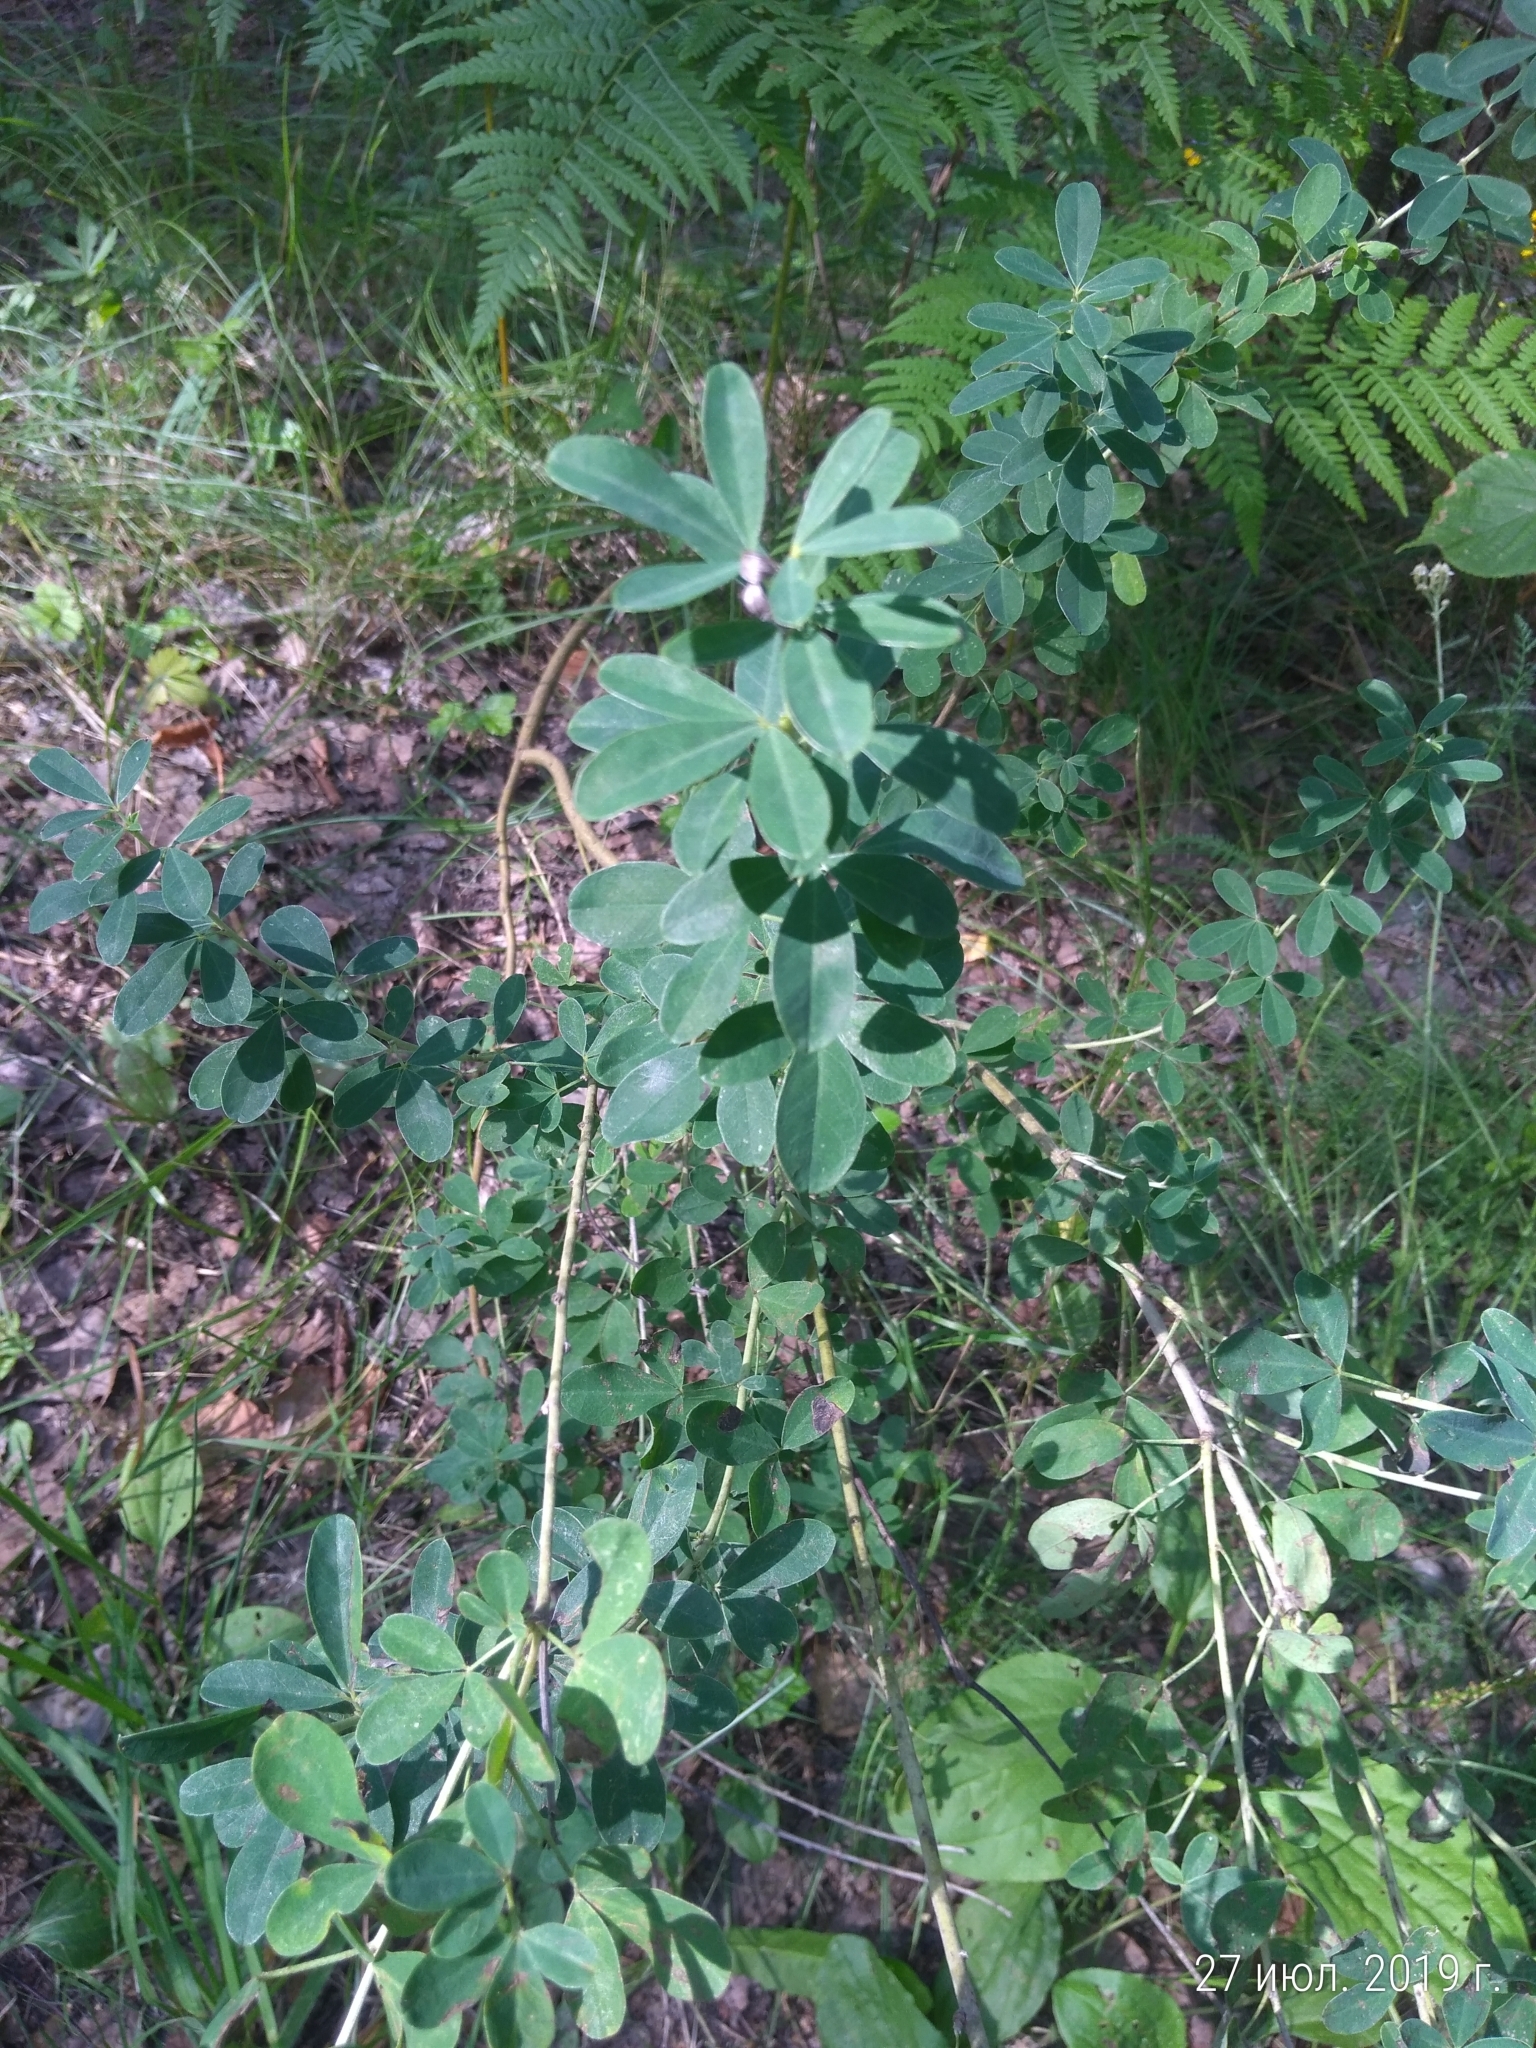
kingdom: Plantae
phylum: Tracheophyta
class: Magnoliopsida
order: Fabales
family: Fabaceae
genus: Chamaecytisus
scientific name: Chamaecytisus ruthenicus
